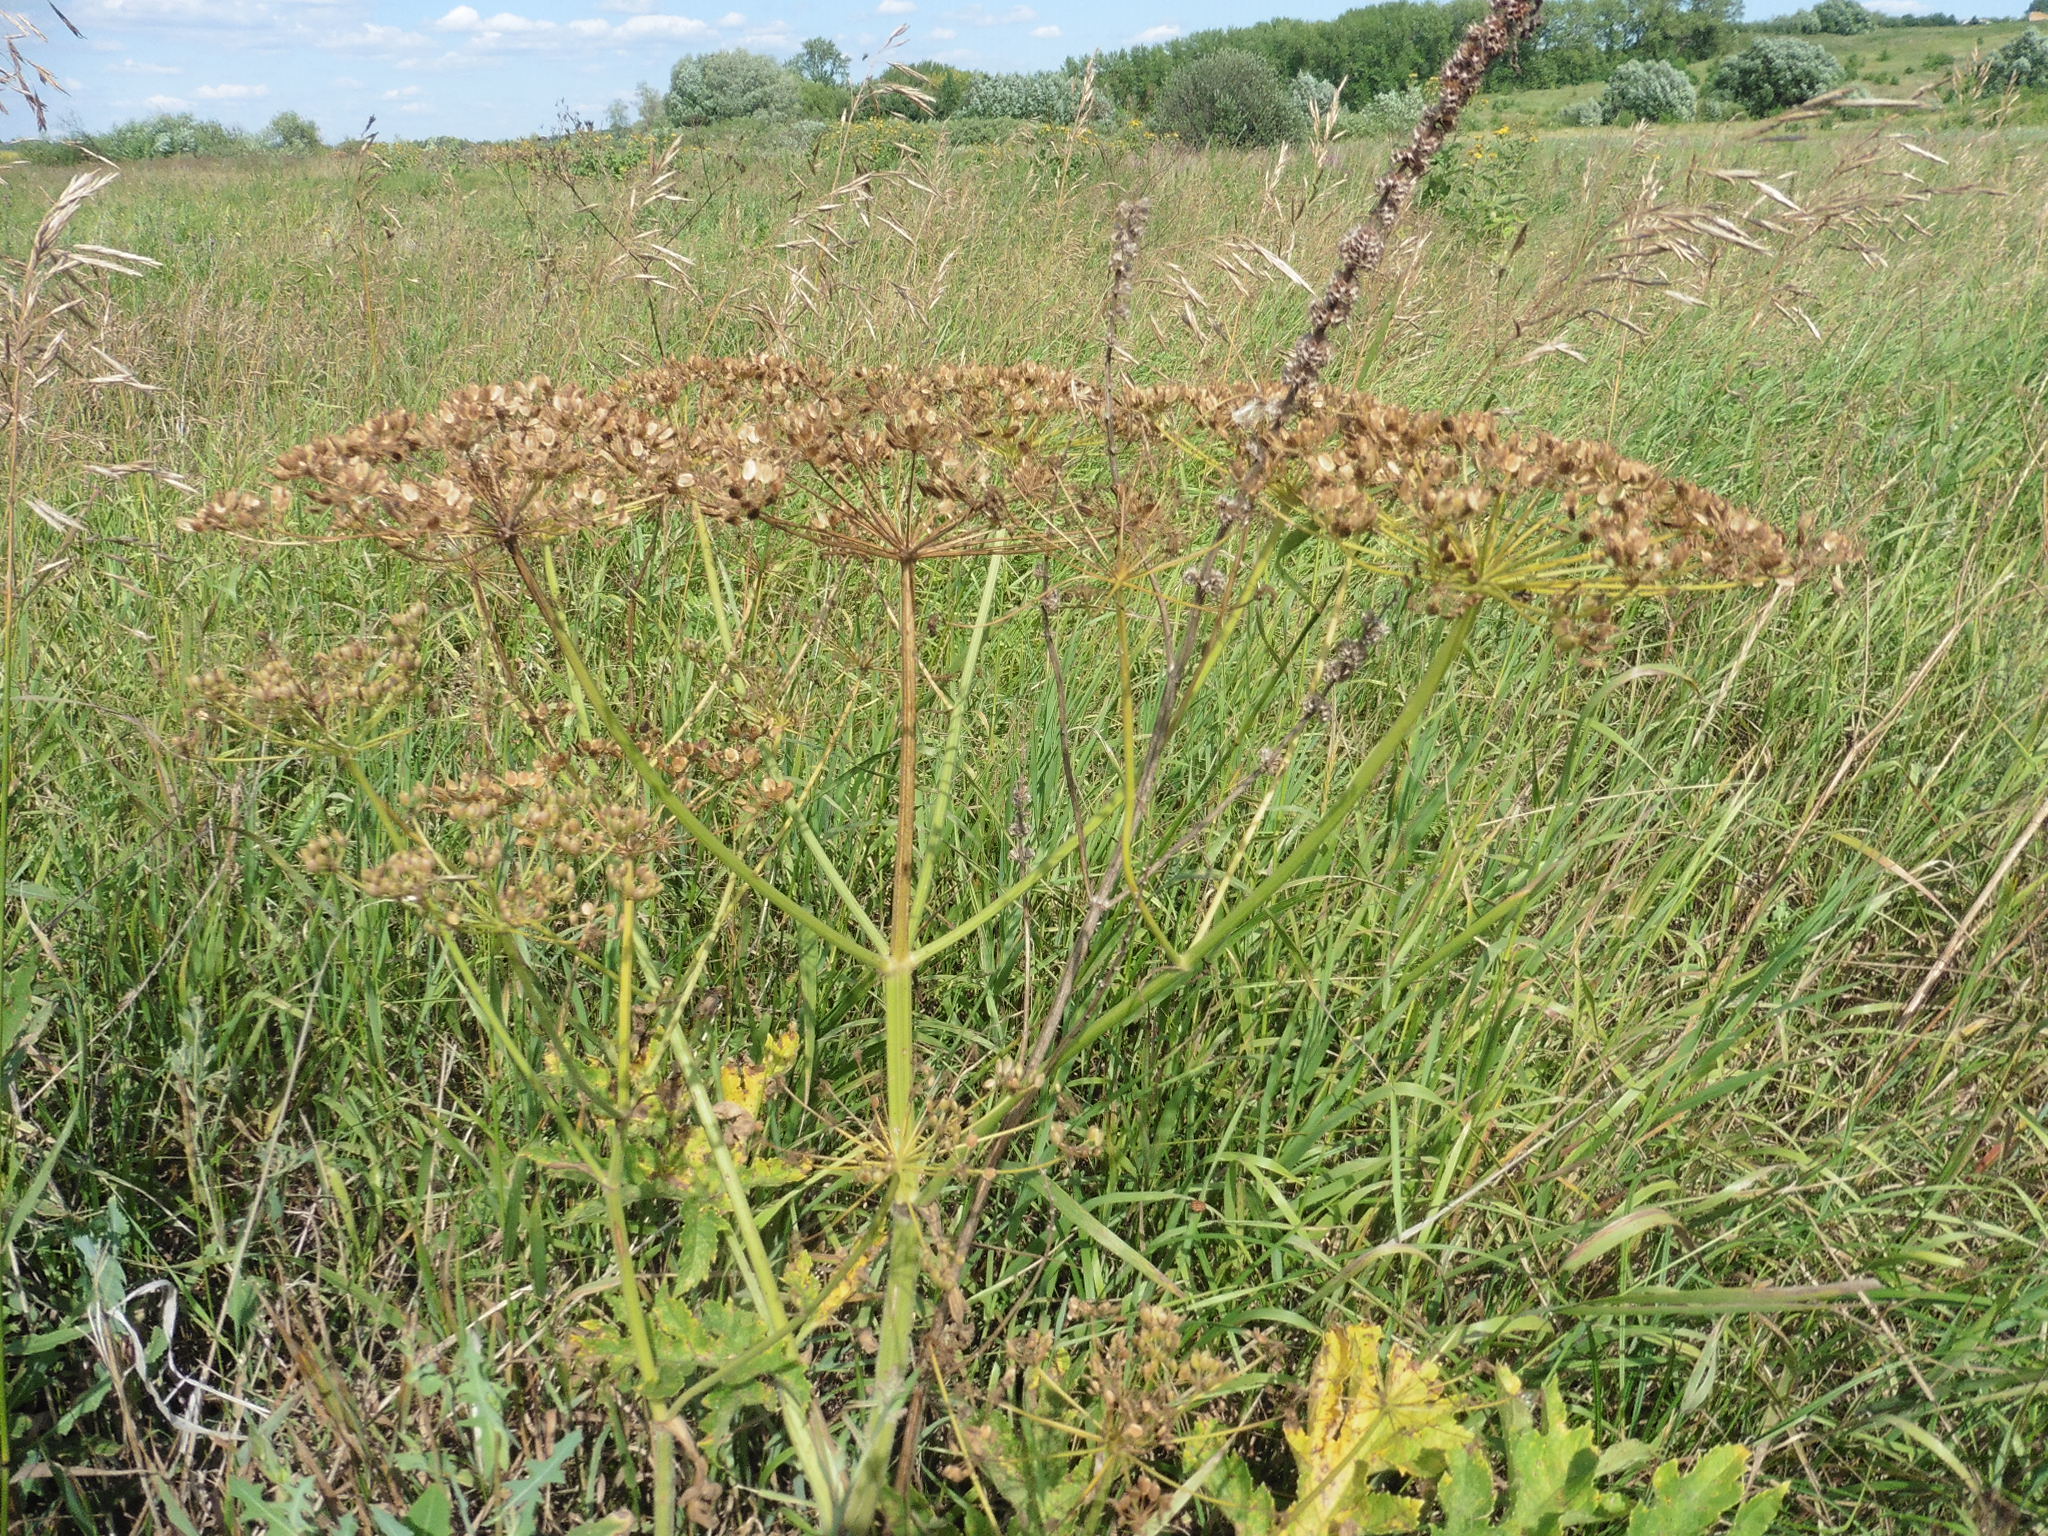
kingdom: Plantae
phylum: Tracheophyta
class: Magnoliopsida
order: Apiales
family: Apiaceae
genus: Heracleum
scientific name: Heracleum sphondylium
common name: Hogweed
